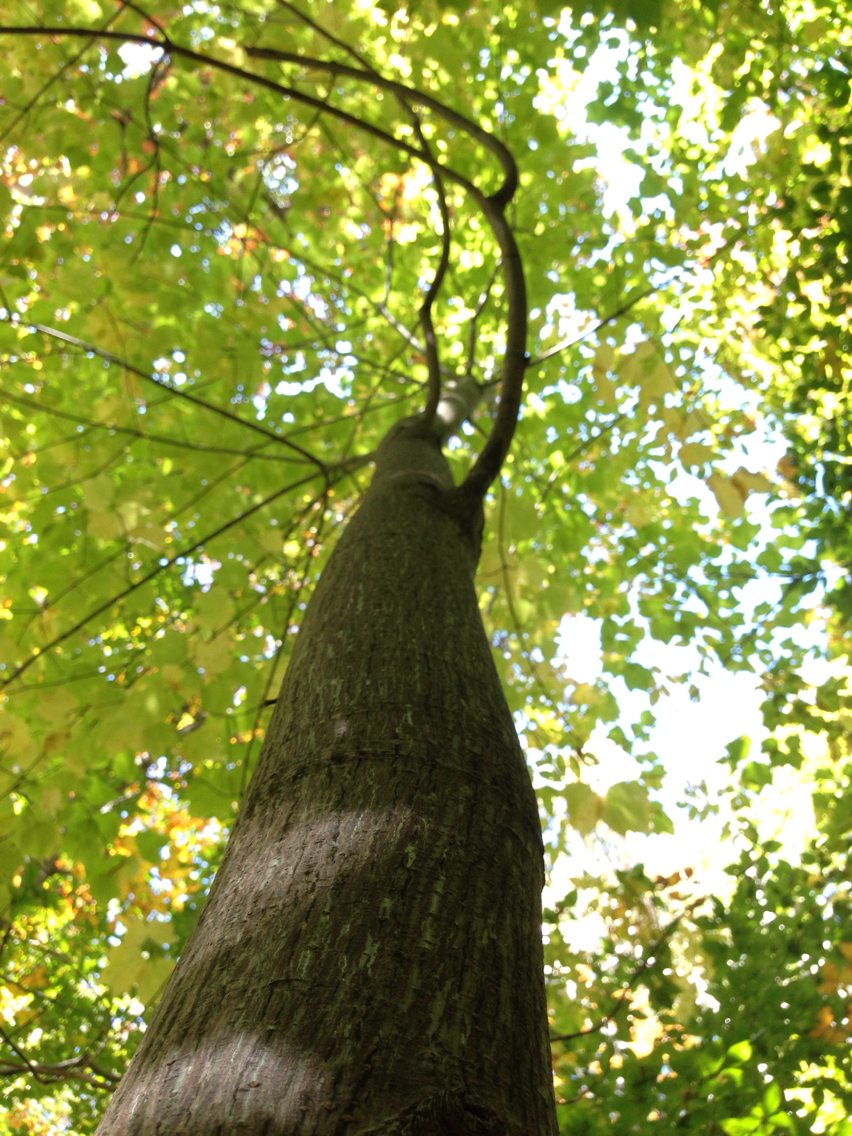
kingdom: Plantae
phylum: Tracheophyta
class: Magnoliopsida
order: Sapindales
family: Sapindaceae
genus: Acer
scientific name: Acer pensylvanicum
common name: Moosewood
